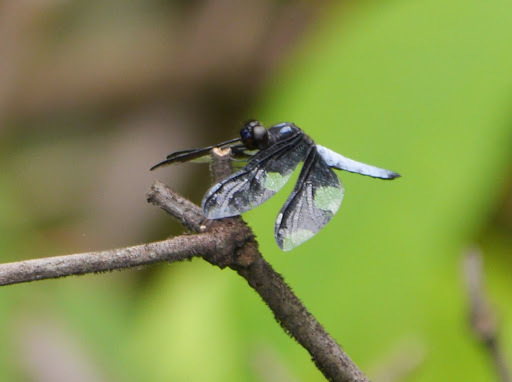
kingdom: Animalia
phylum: Arthropoda
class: Insecta
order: Odonata
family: Libellulidae
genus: Palpopleura
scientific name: Palpopleura portia
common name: Portia widow
